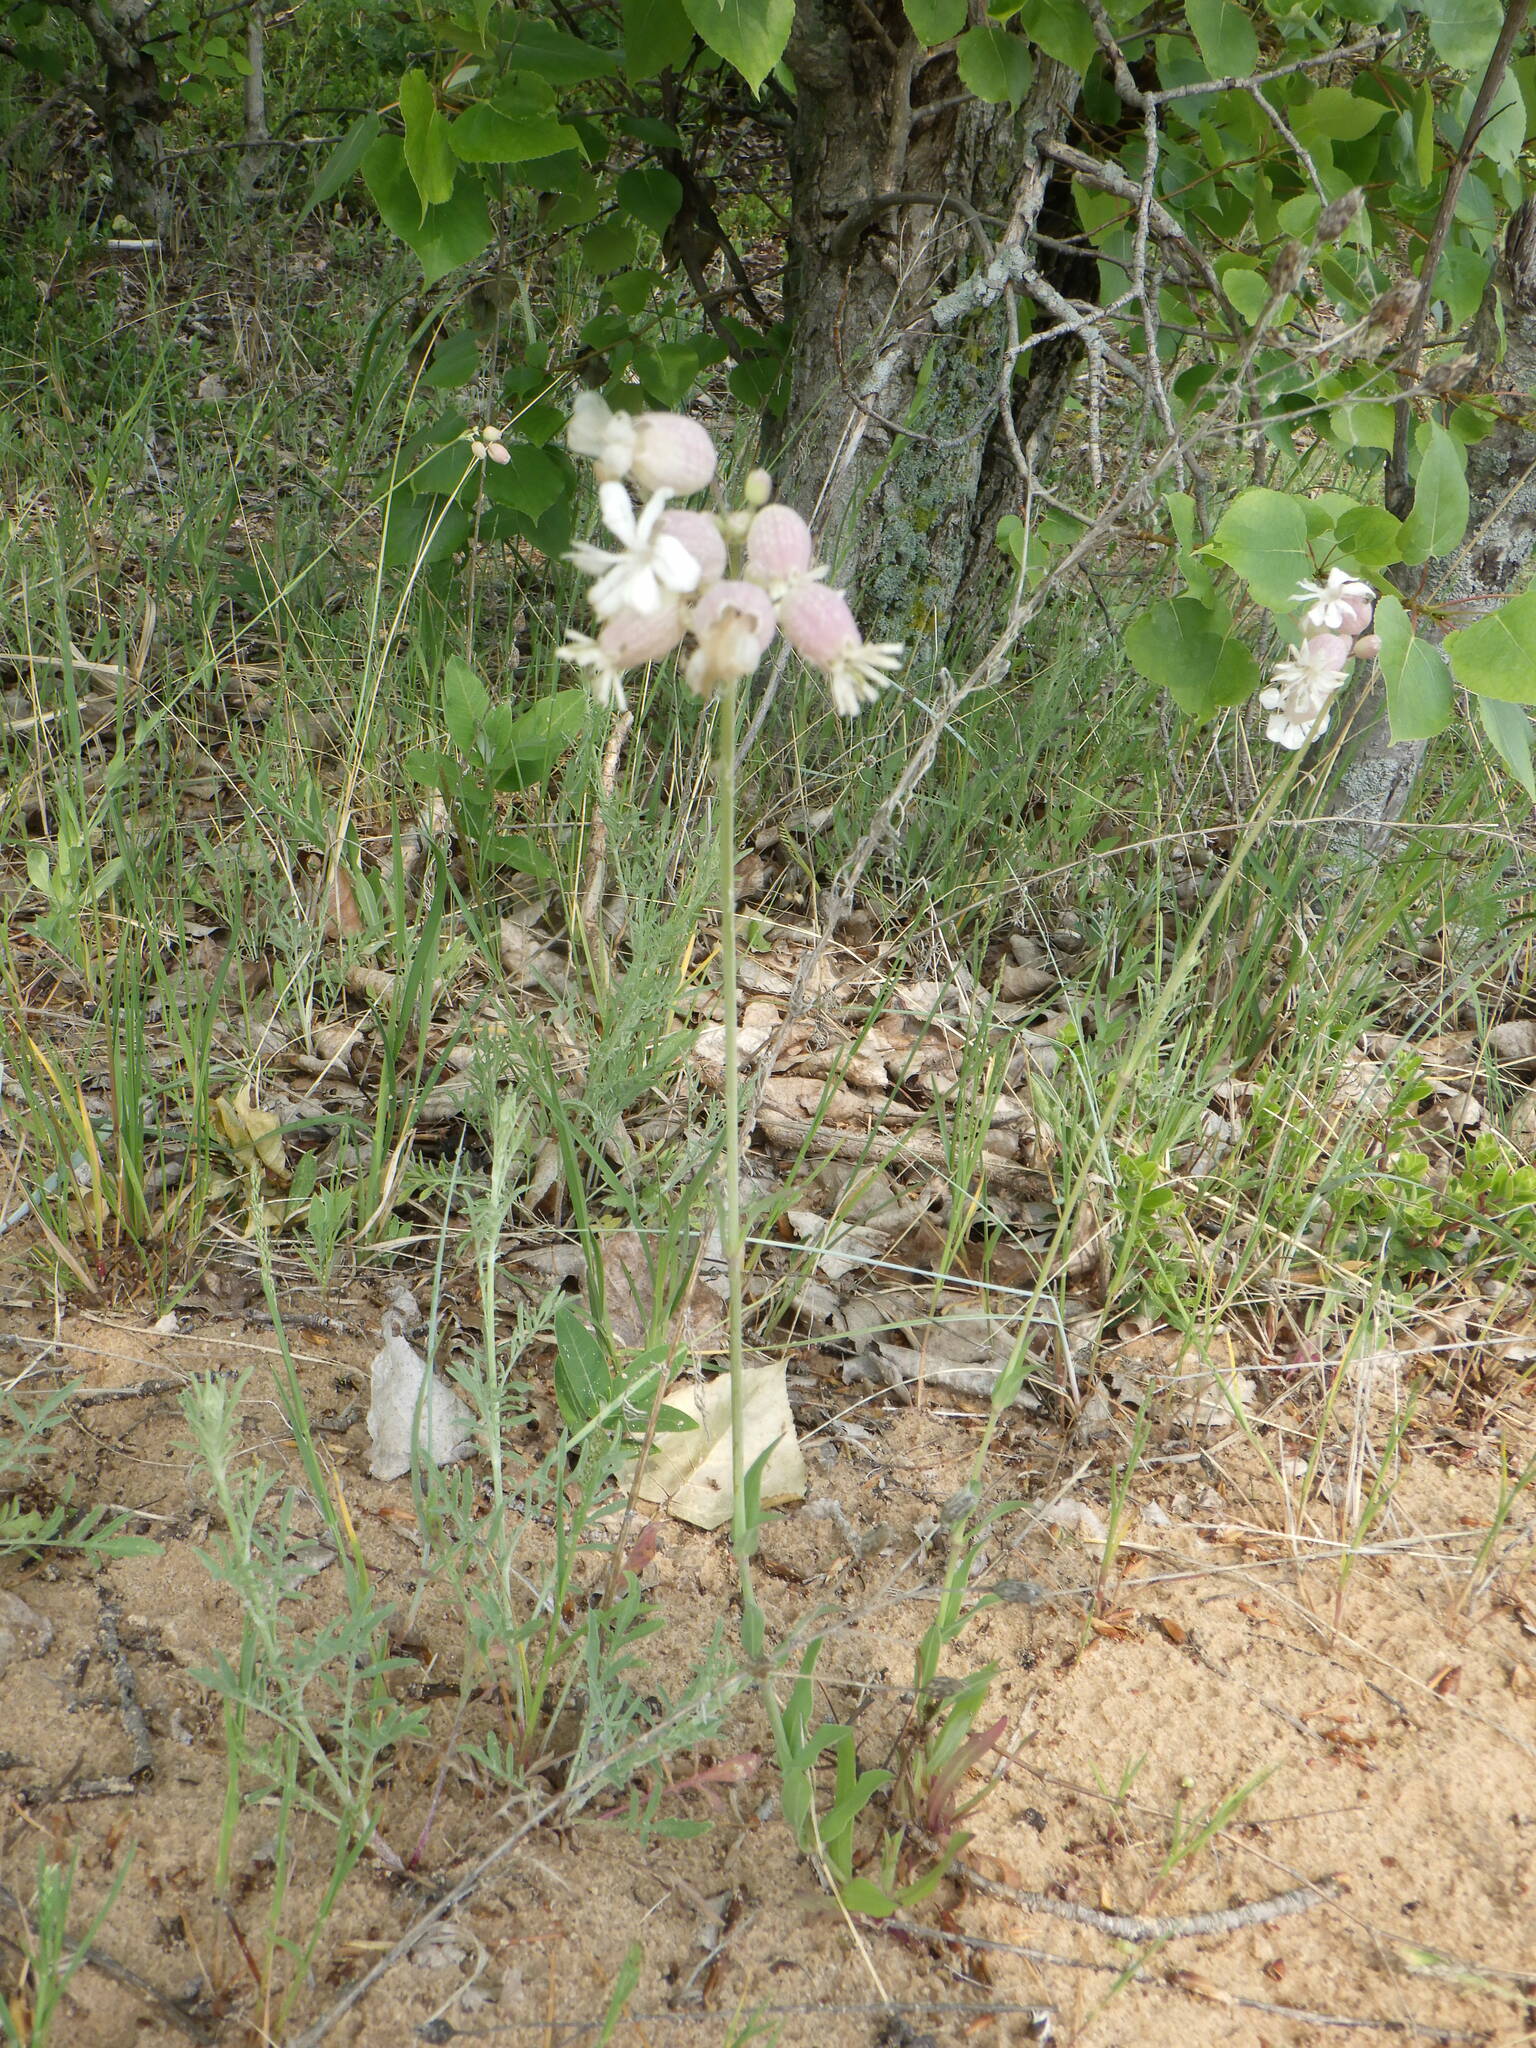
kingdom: Plantae
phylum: Tracheophyta
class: Magnoliopsida
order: Caryophyllales
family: Caryophyllaceae
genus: Silene
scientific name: Silene vulgaris
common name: Bladder campion
